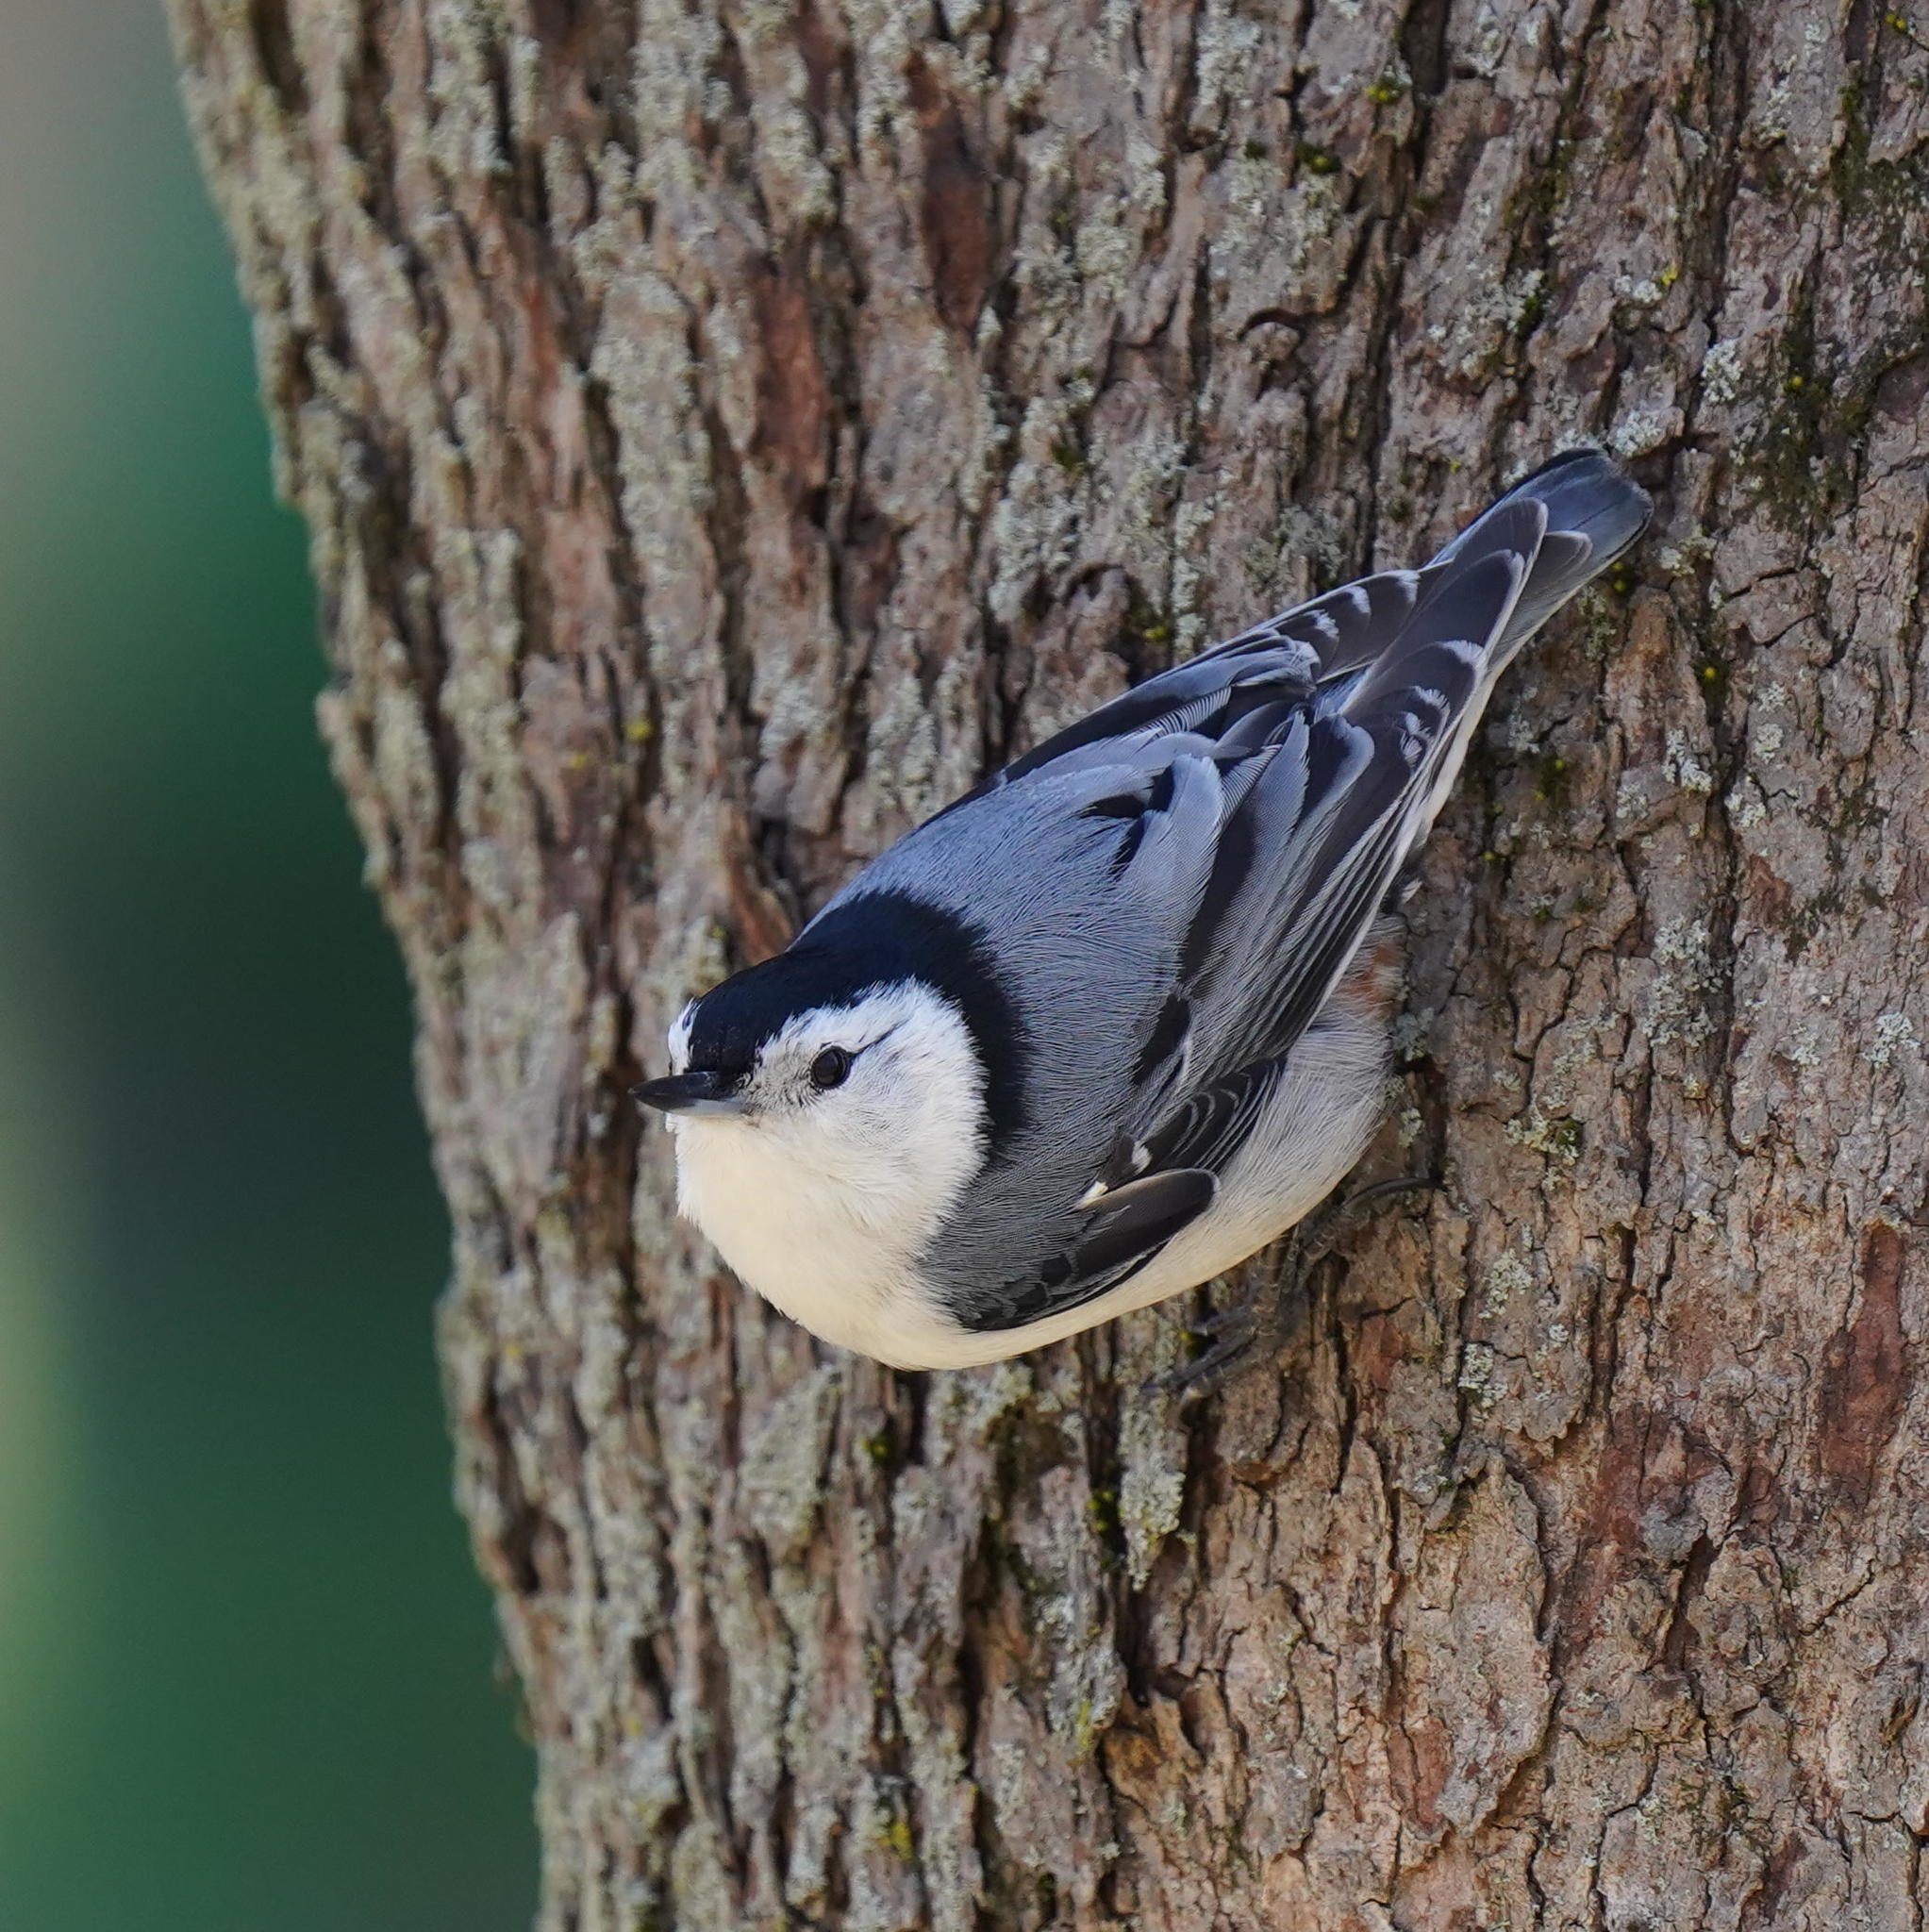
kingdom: Animalia
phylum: Chordata
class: Aves
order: Passeriformes
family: Sittidae
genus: Sitta
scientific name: Sitta carolinensis
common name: White-breasted nuthatch
